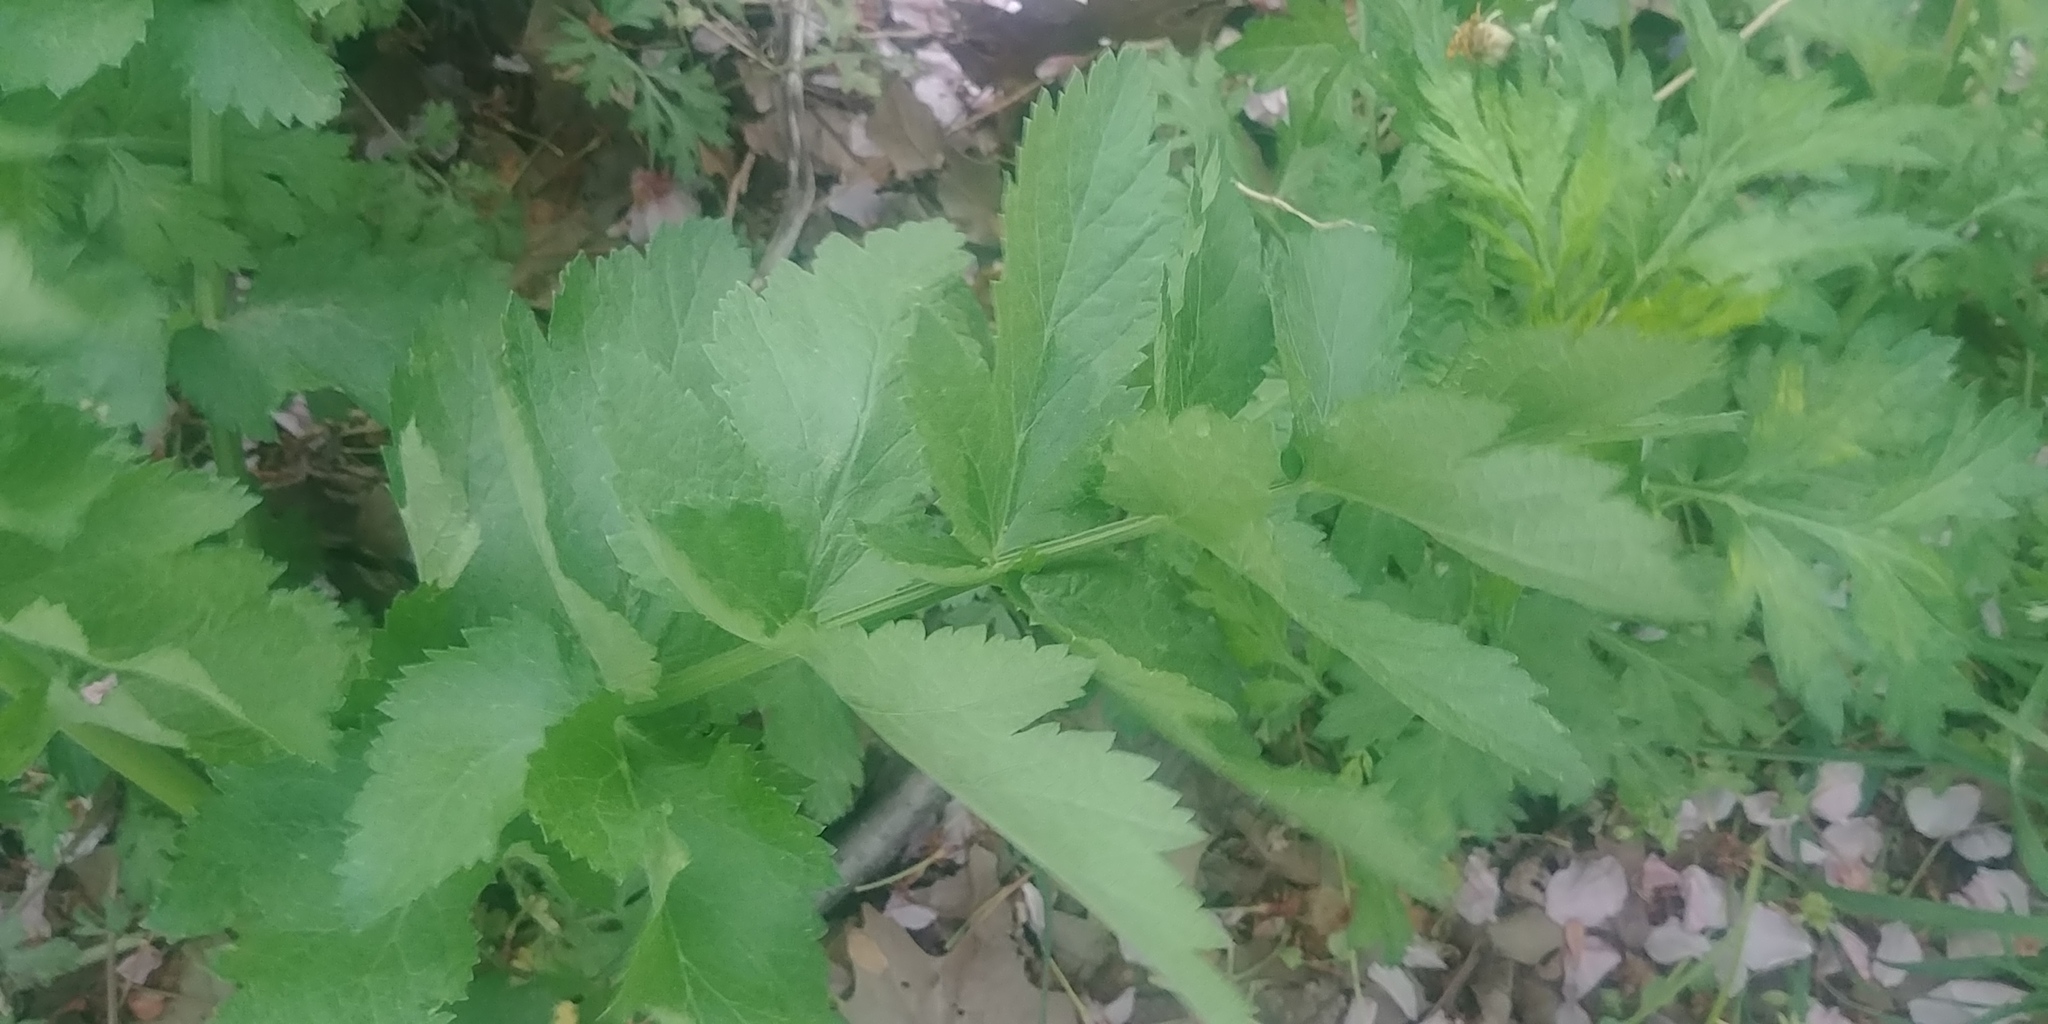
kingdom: Plantae
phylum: Tracheophyta
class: Magnoliopsida
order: Apiales
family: Apiaceae
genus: Pastinaca
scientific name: Pastinaca sativa
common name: Wild parsnip
